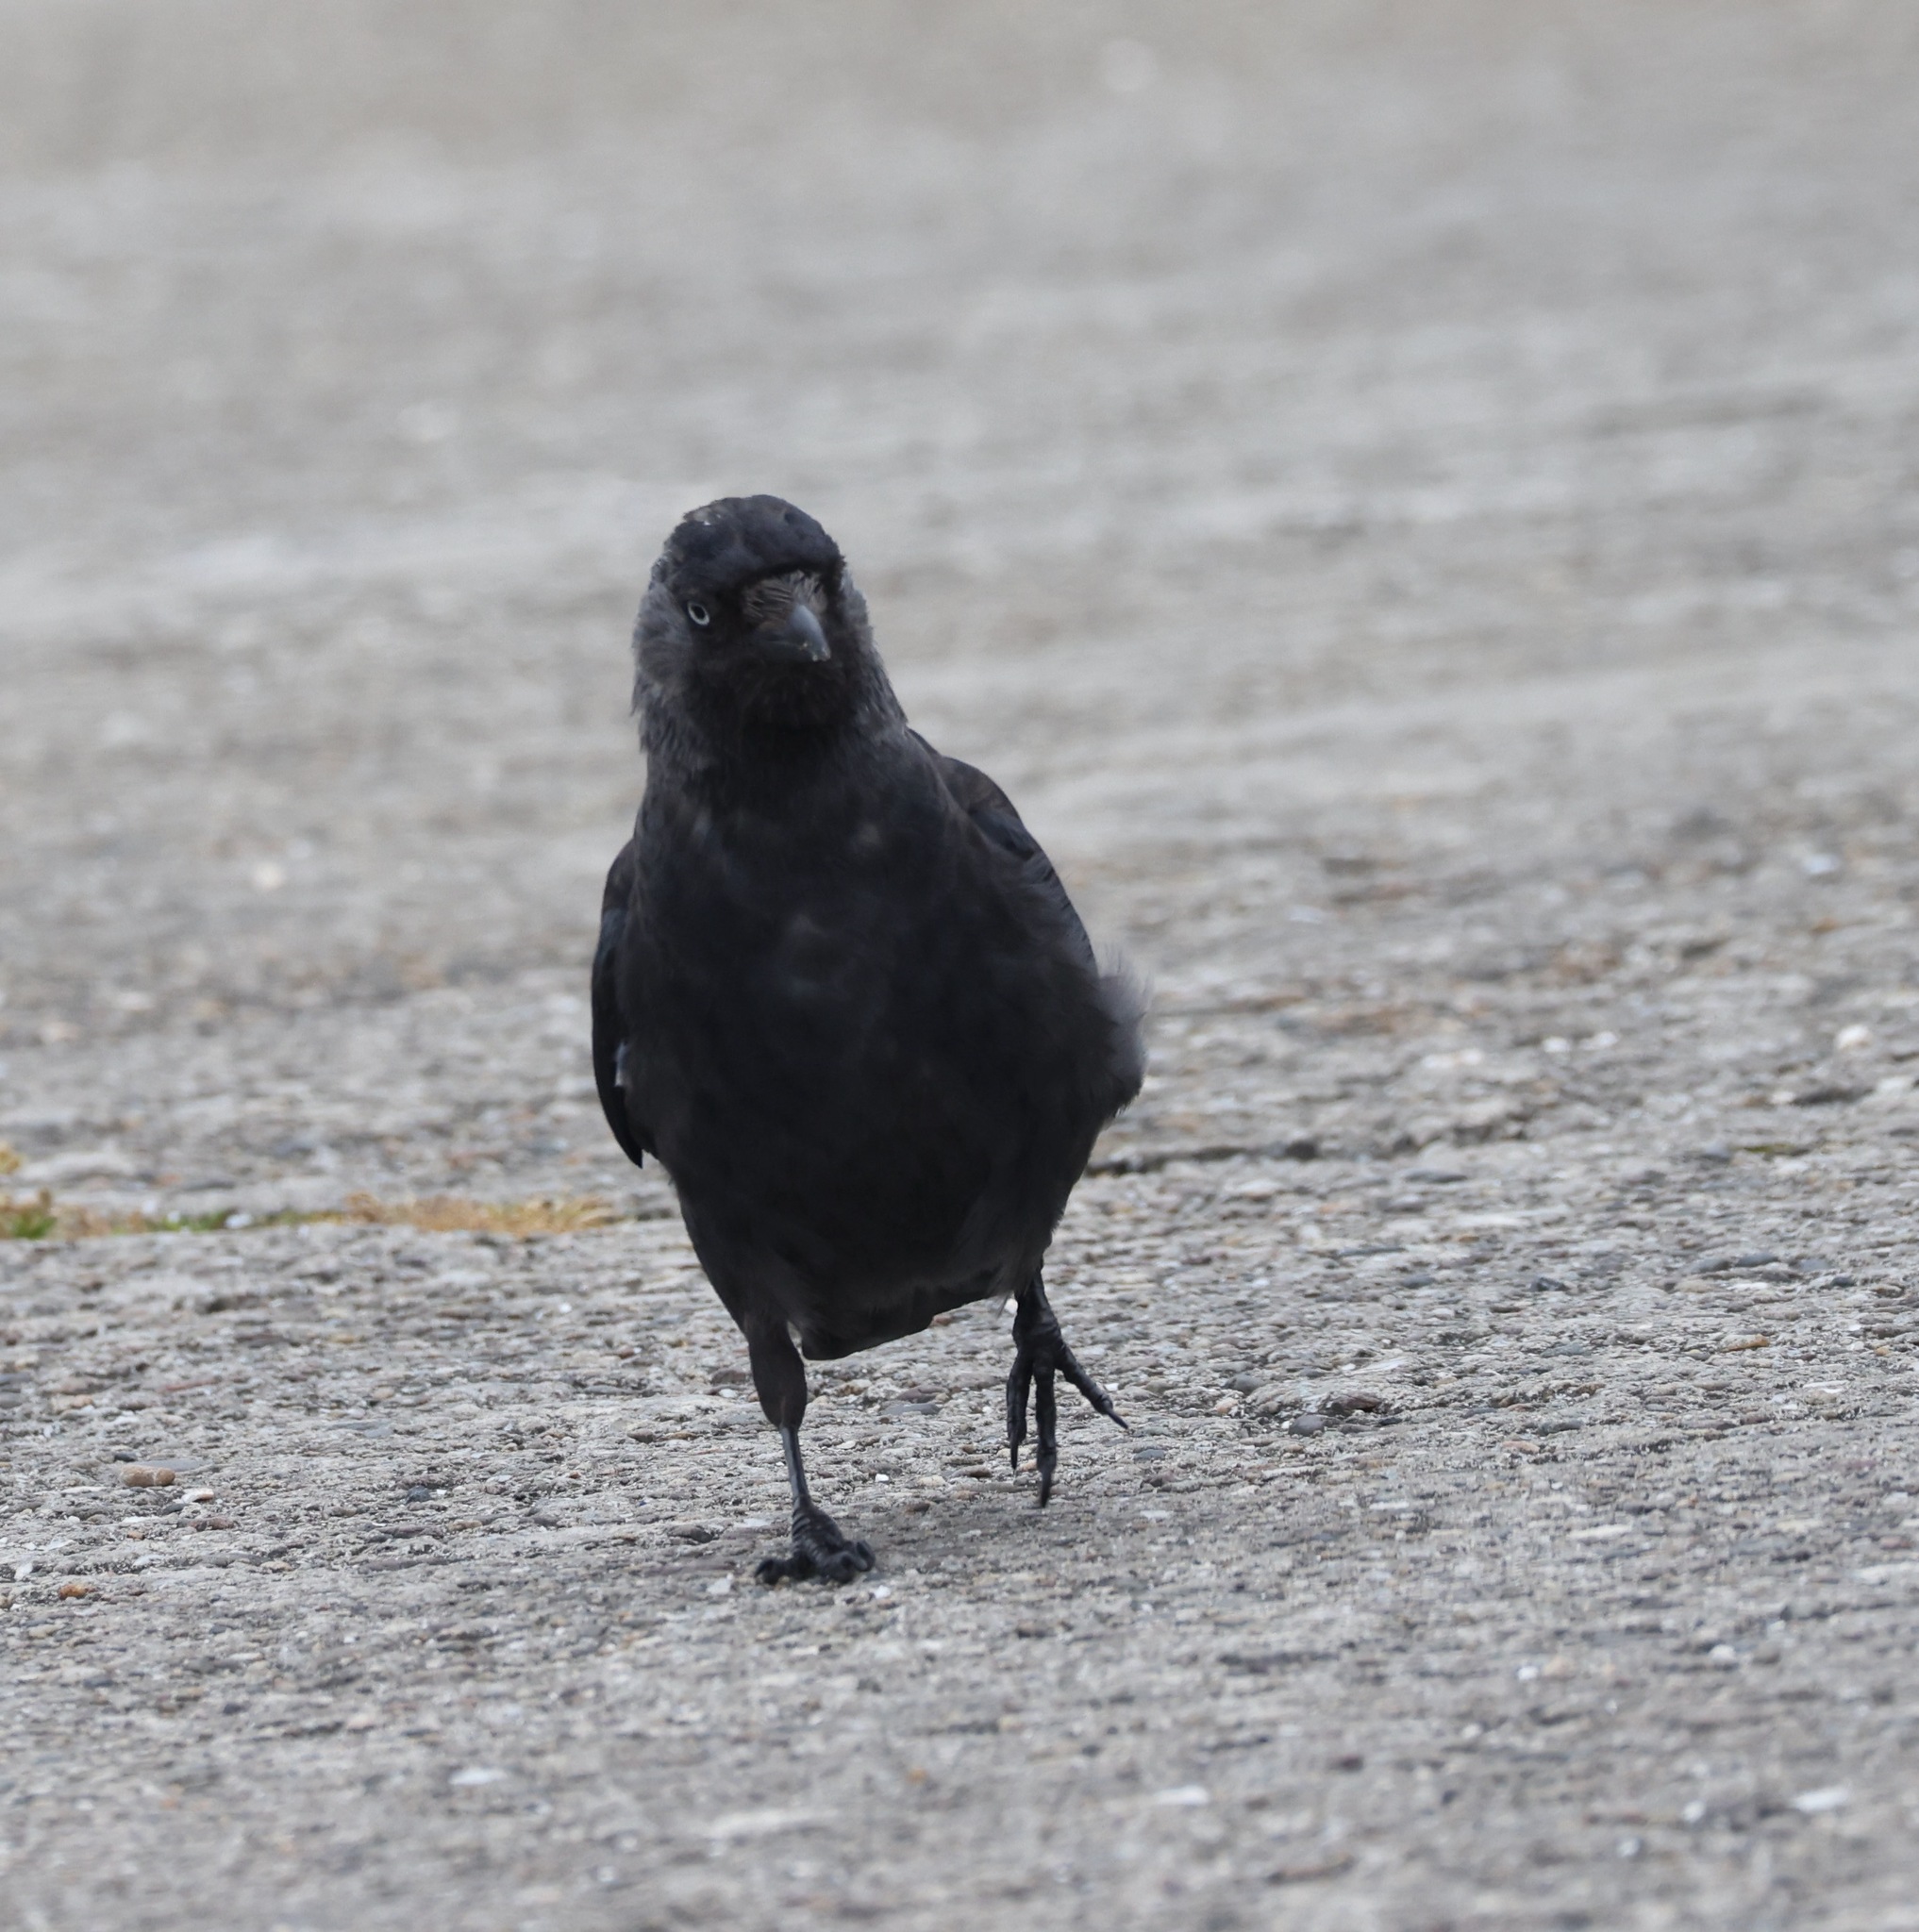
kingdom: Animalia
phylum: Chordata
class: Aves
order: Passeriformes
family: Corvidae
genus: Coloeus
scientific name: Coloeus monedula
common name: Western jackdaw
